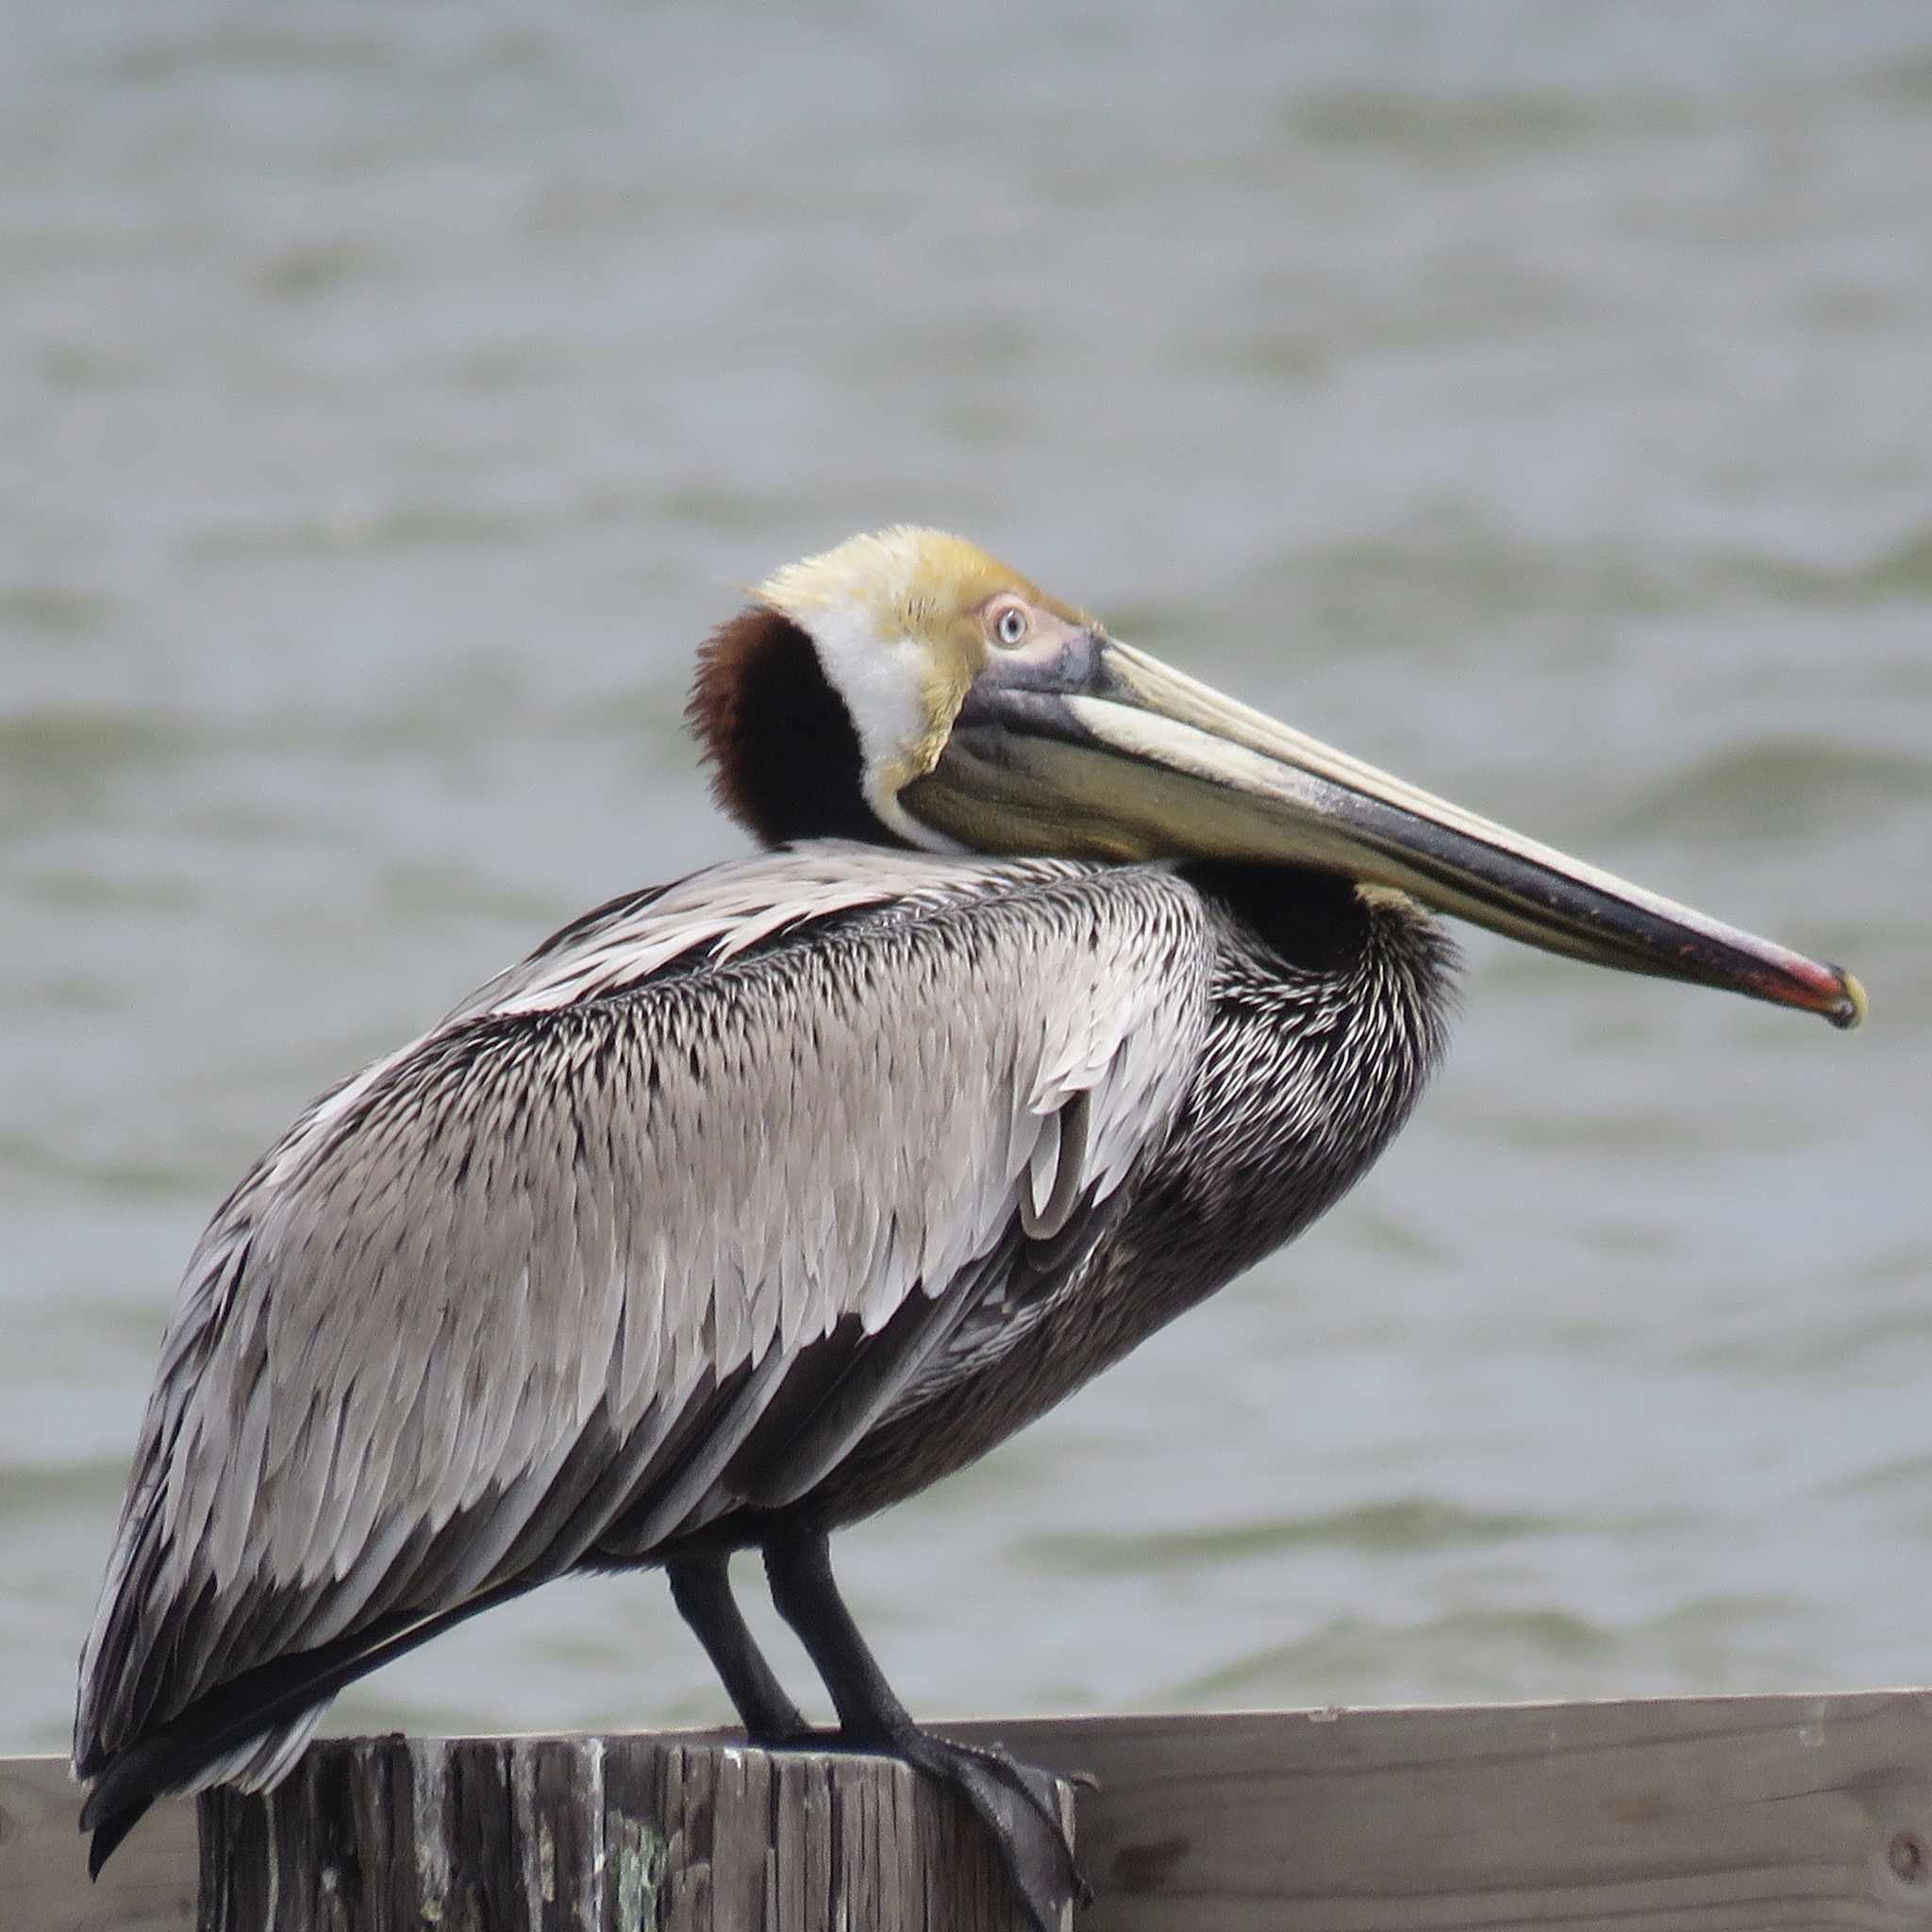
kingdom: Animalia
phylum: Chordata
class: Aves
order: Pelecaniformes
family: Pelecanidae
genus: Pelecanus
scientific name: Pelecanus occidentalis
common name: Brown pelican
